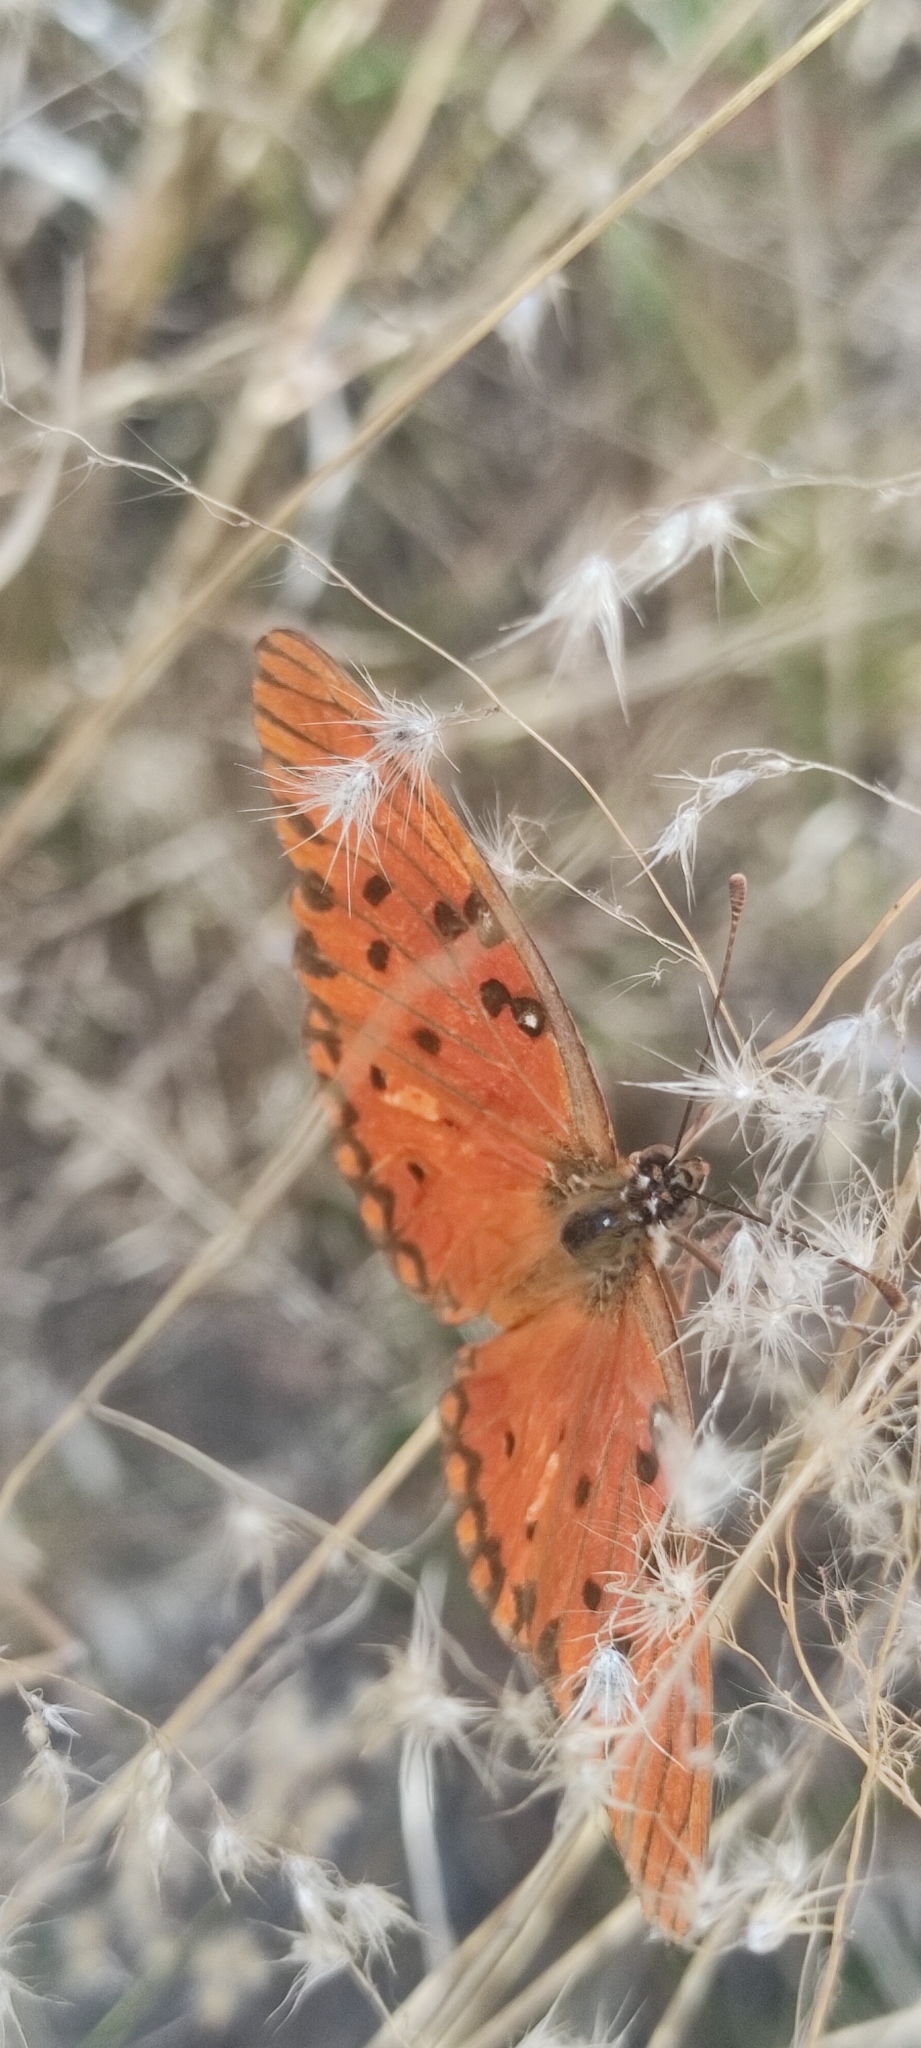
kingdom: Animalia
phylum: Arthropoda
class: Insecta
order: Lepidoptera
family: Nymphalidae
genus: Dione
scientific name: Dione vanillae
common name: Gulf fritillary
